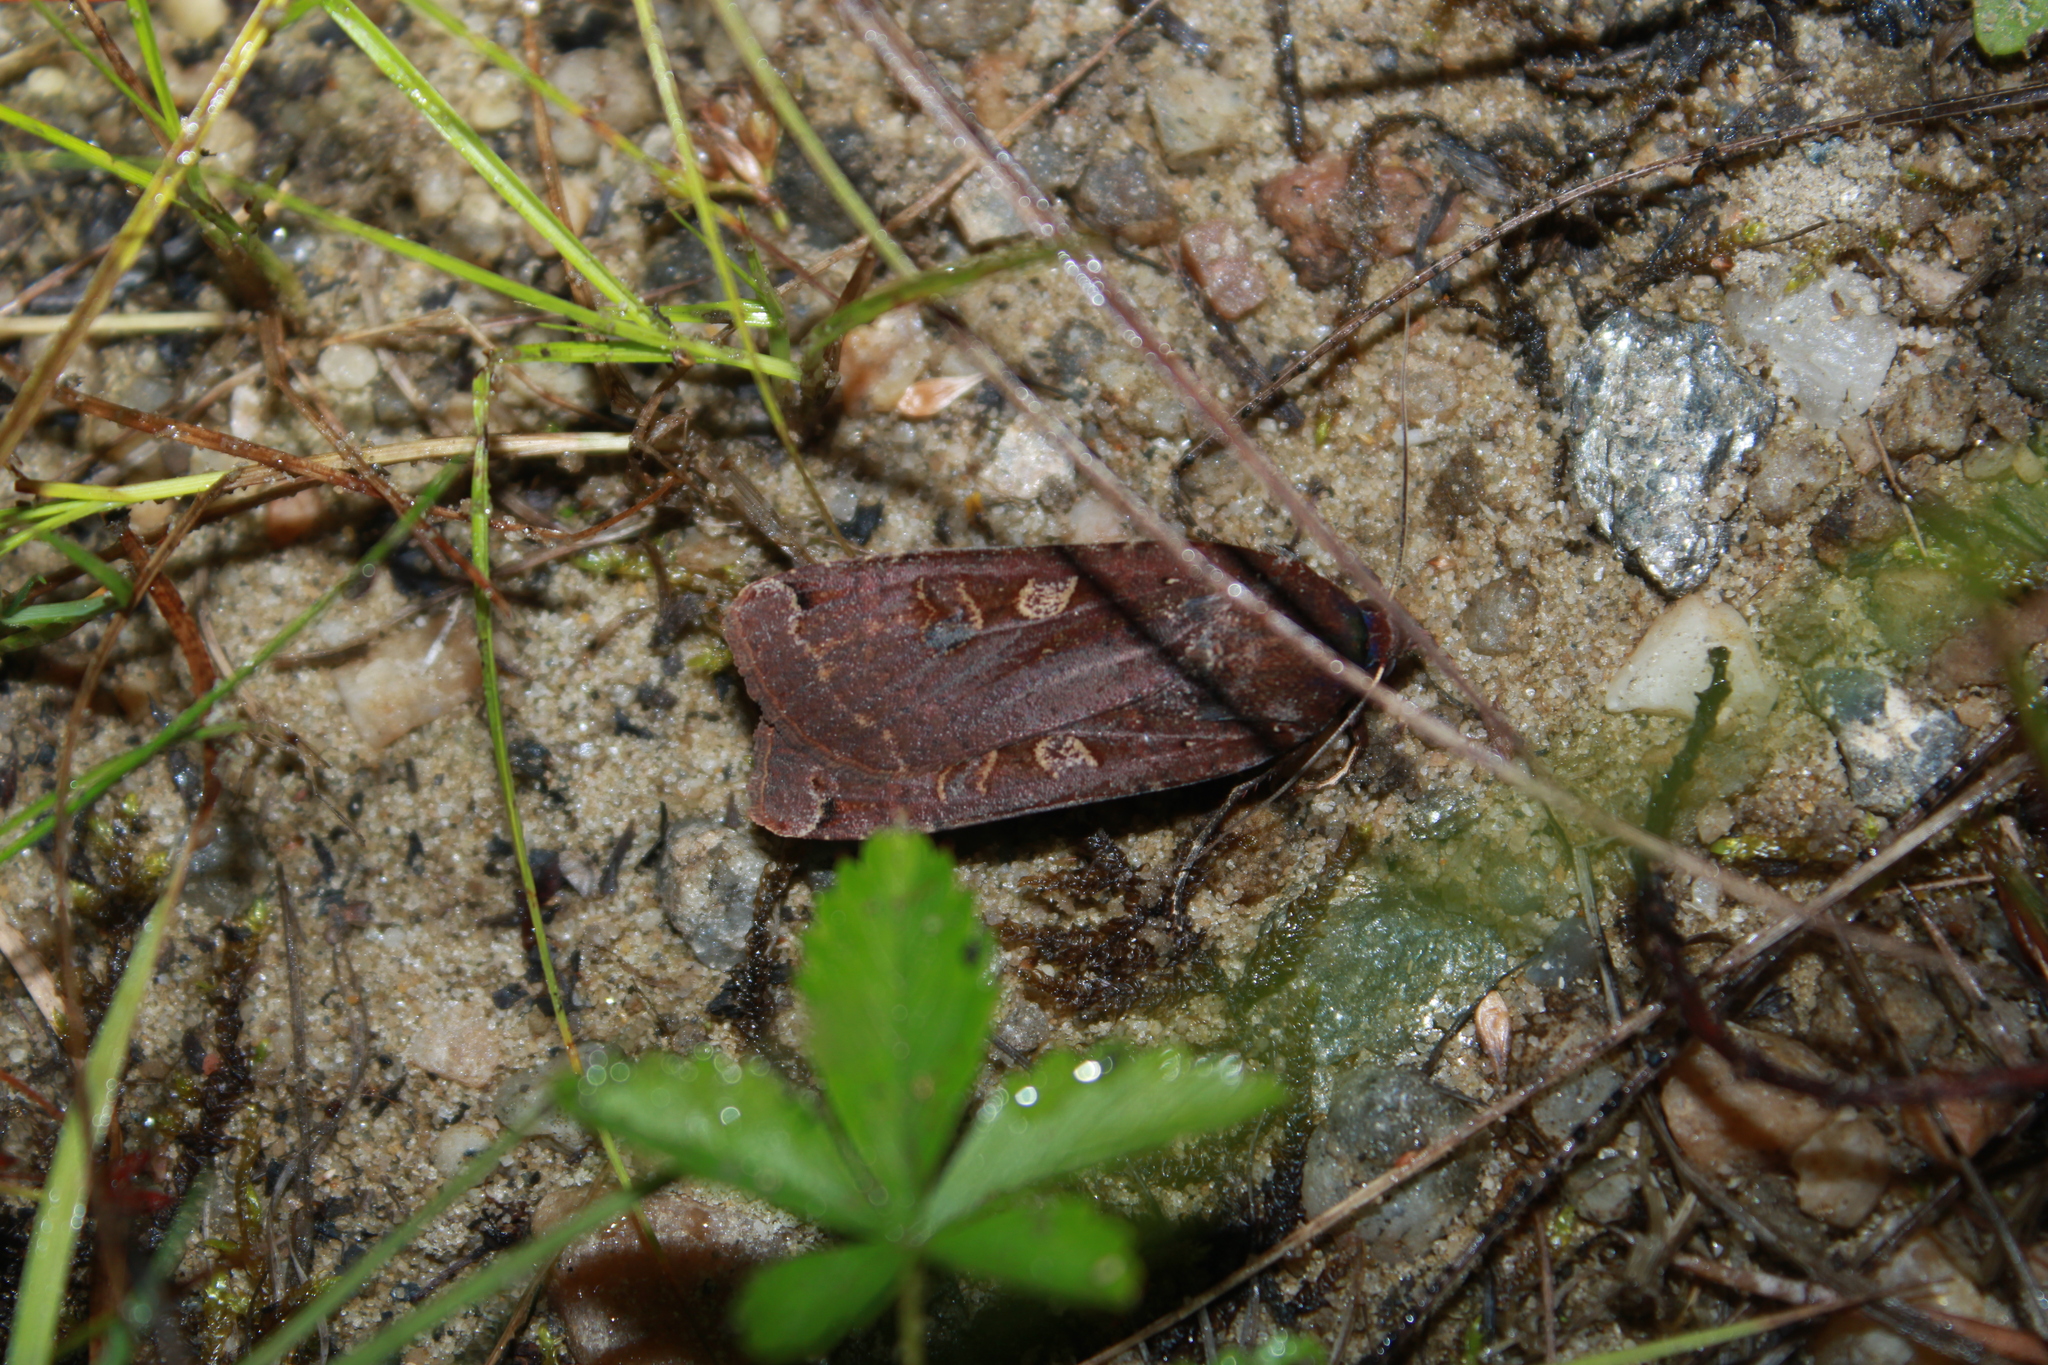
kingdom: Animalia
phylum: Arthropoda
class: Insecta
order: Lepidoptera
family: Noctuidae
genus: Noctua
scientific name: Noctua pronuba
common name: Large yellow underwing
